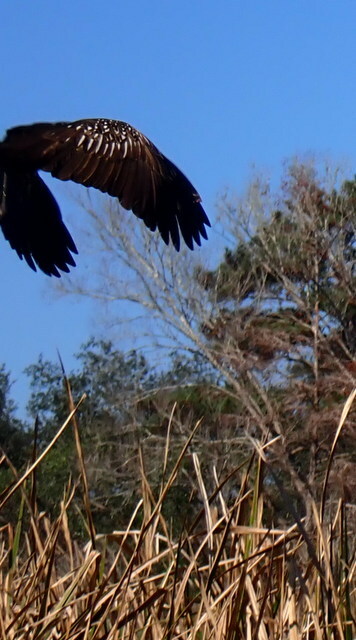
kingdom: Animalia
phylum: Chordata
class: Aves
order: Gruiformes
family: Aramidae
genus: Aramus
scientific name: Aramus guarauna
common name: Limpkin
